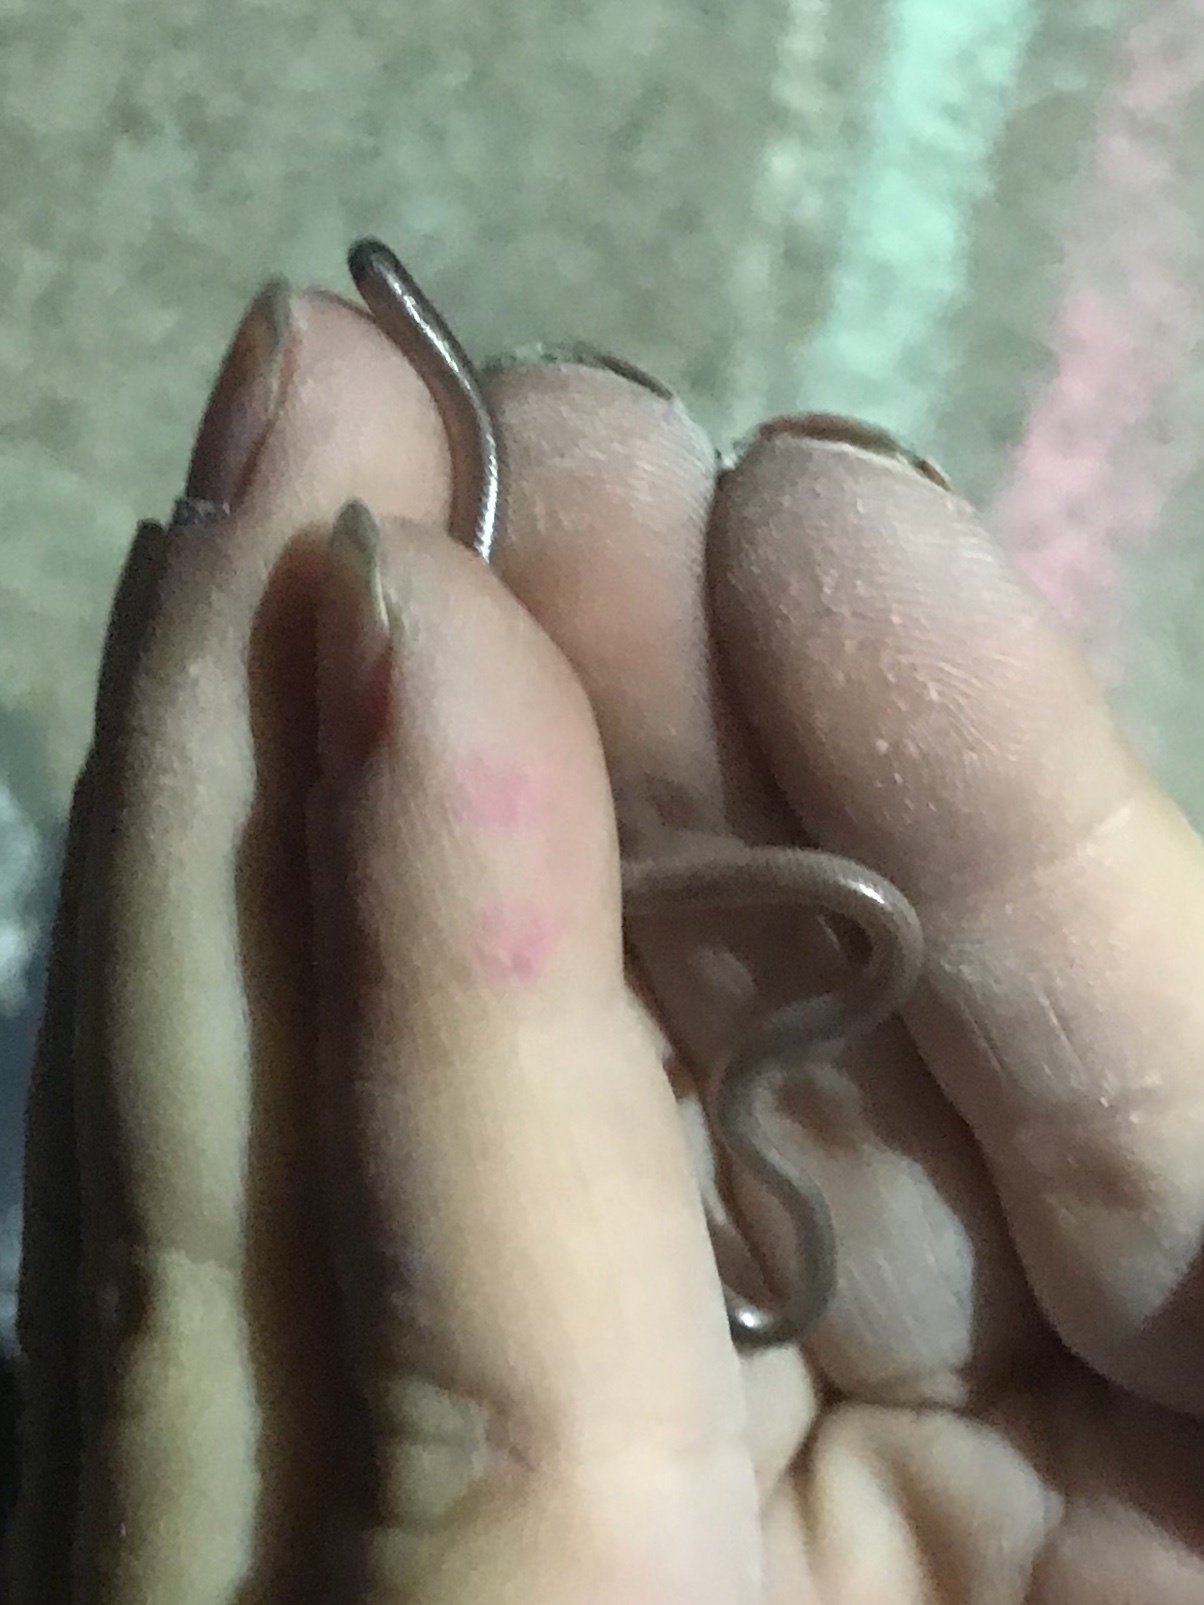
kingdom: Animalia
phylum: Chordata
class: Squamata
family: Leptotyphlopidae
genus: Rena
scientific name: Rena dulcis
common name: Texas blind snake
